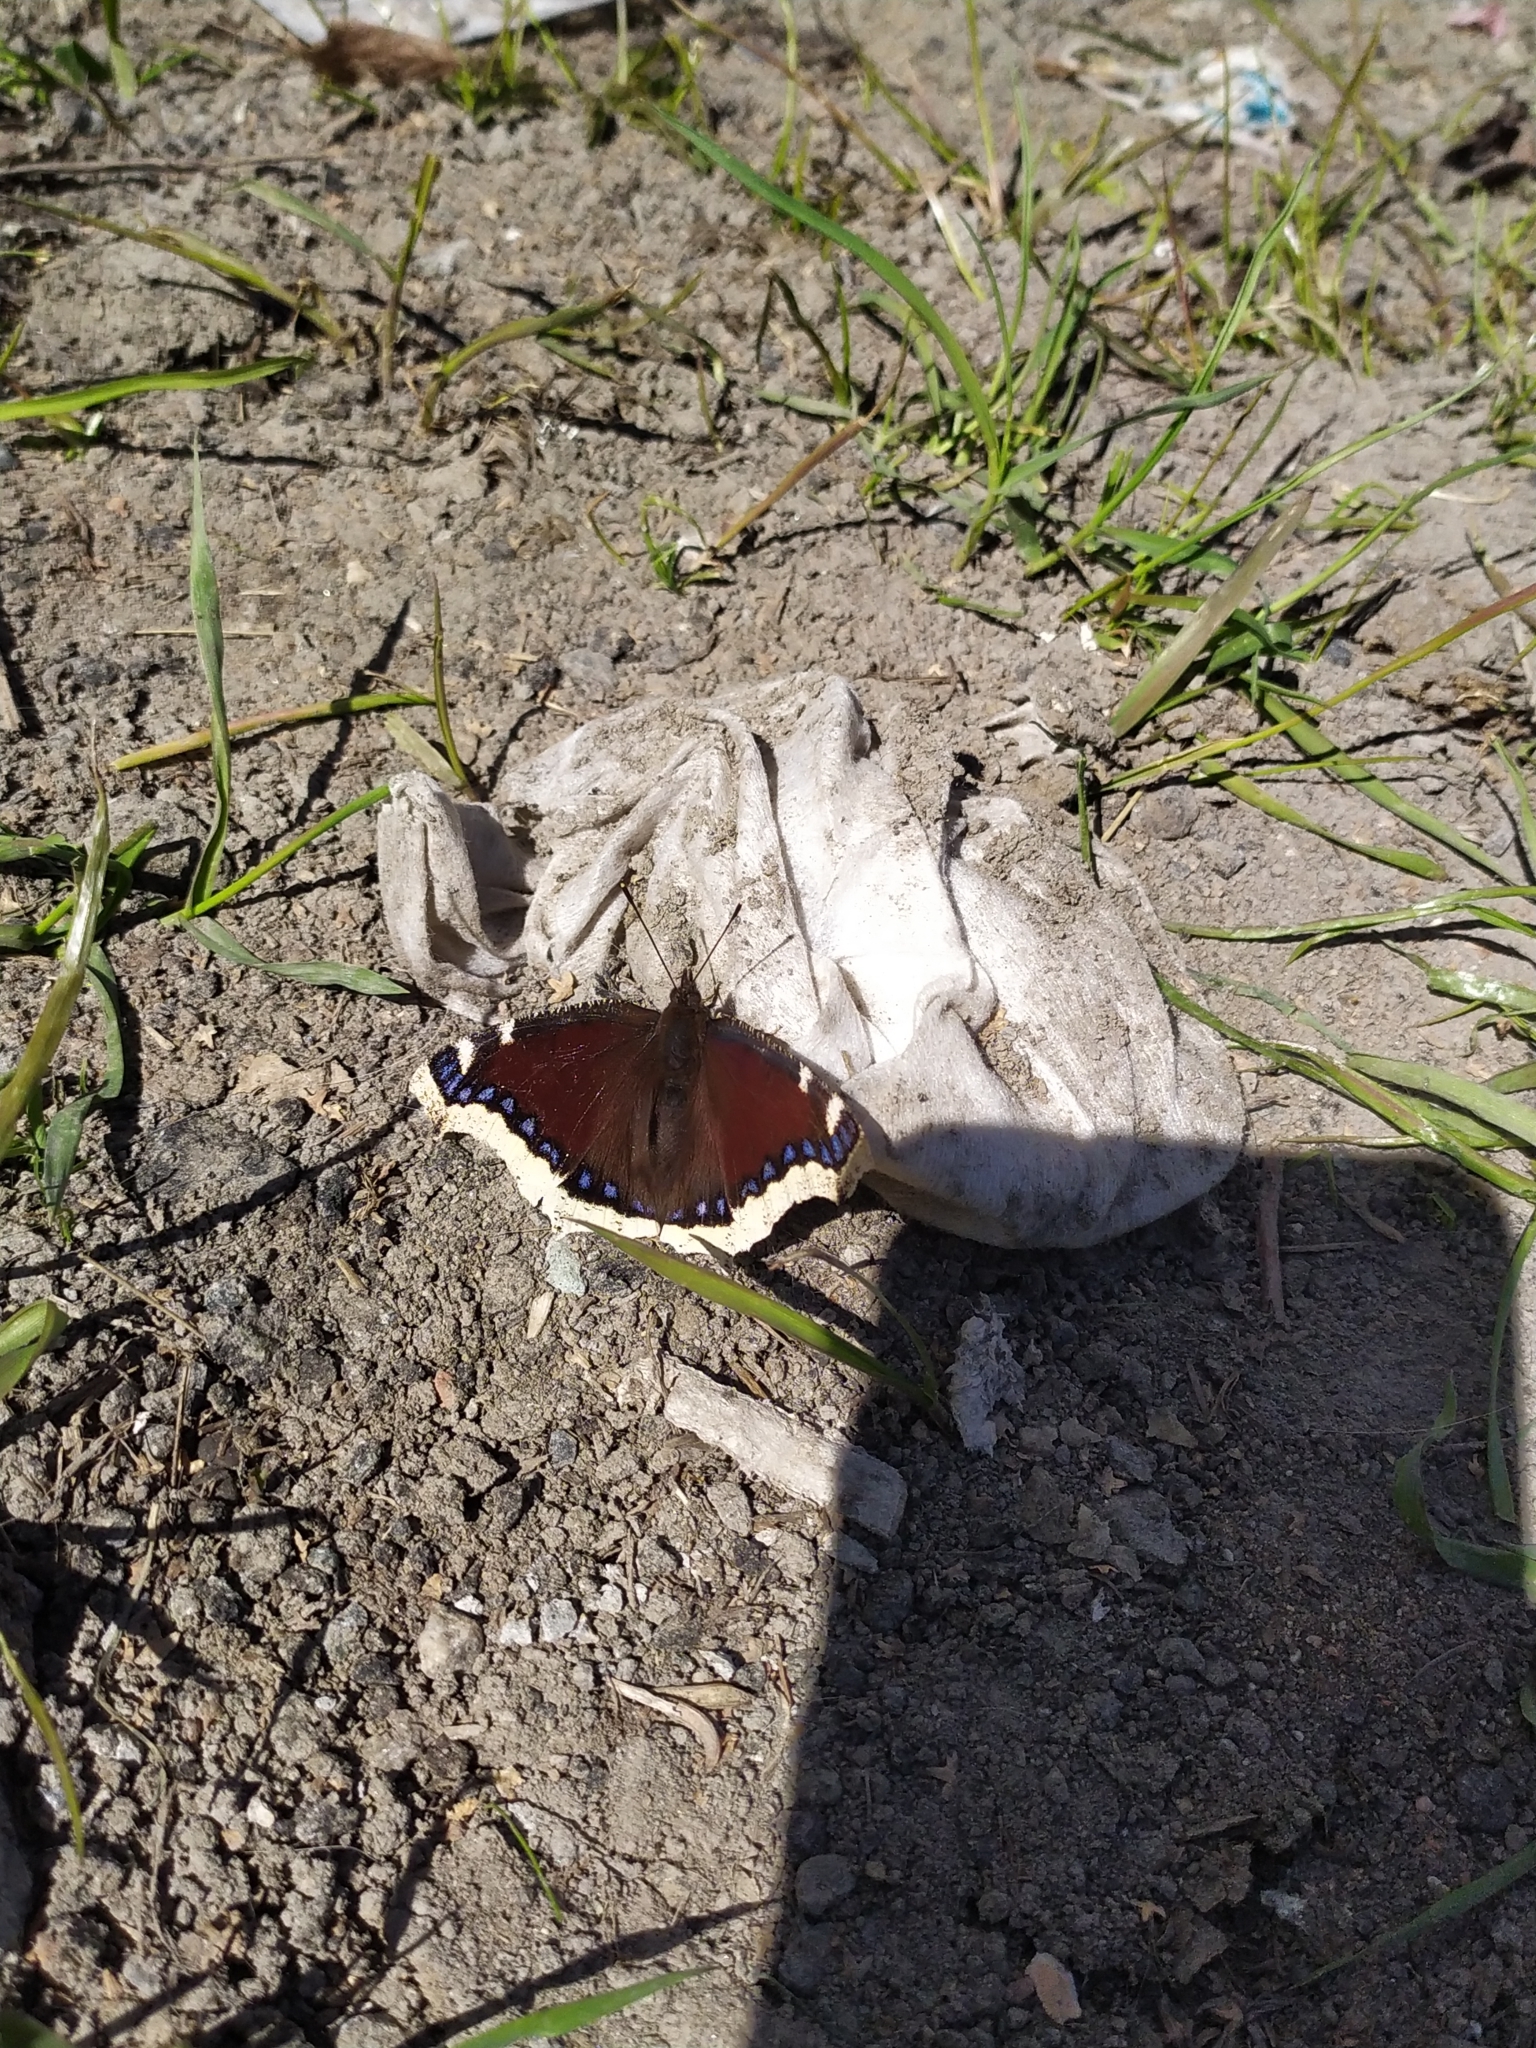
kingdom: Animalia
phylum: Arthropoda
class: Insecta
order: Lepidoptera
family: Nymphalidae
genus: Nymphalis
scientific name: Nymphalis antiopa
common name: Camberwell beauty
